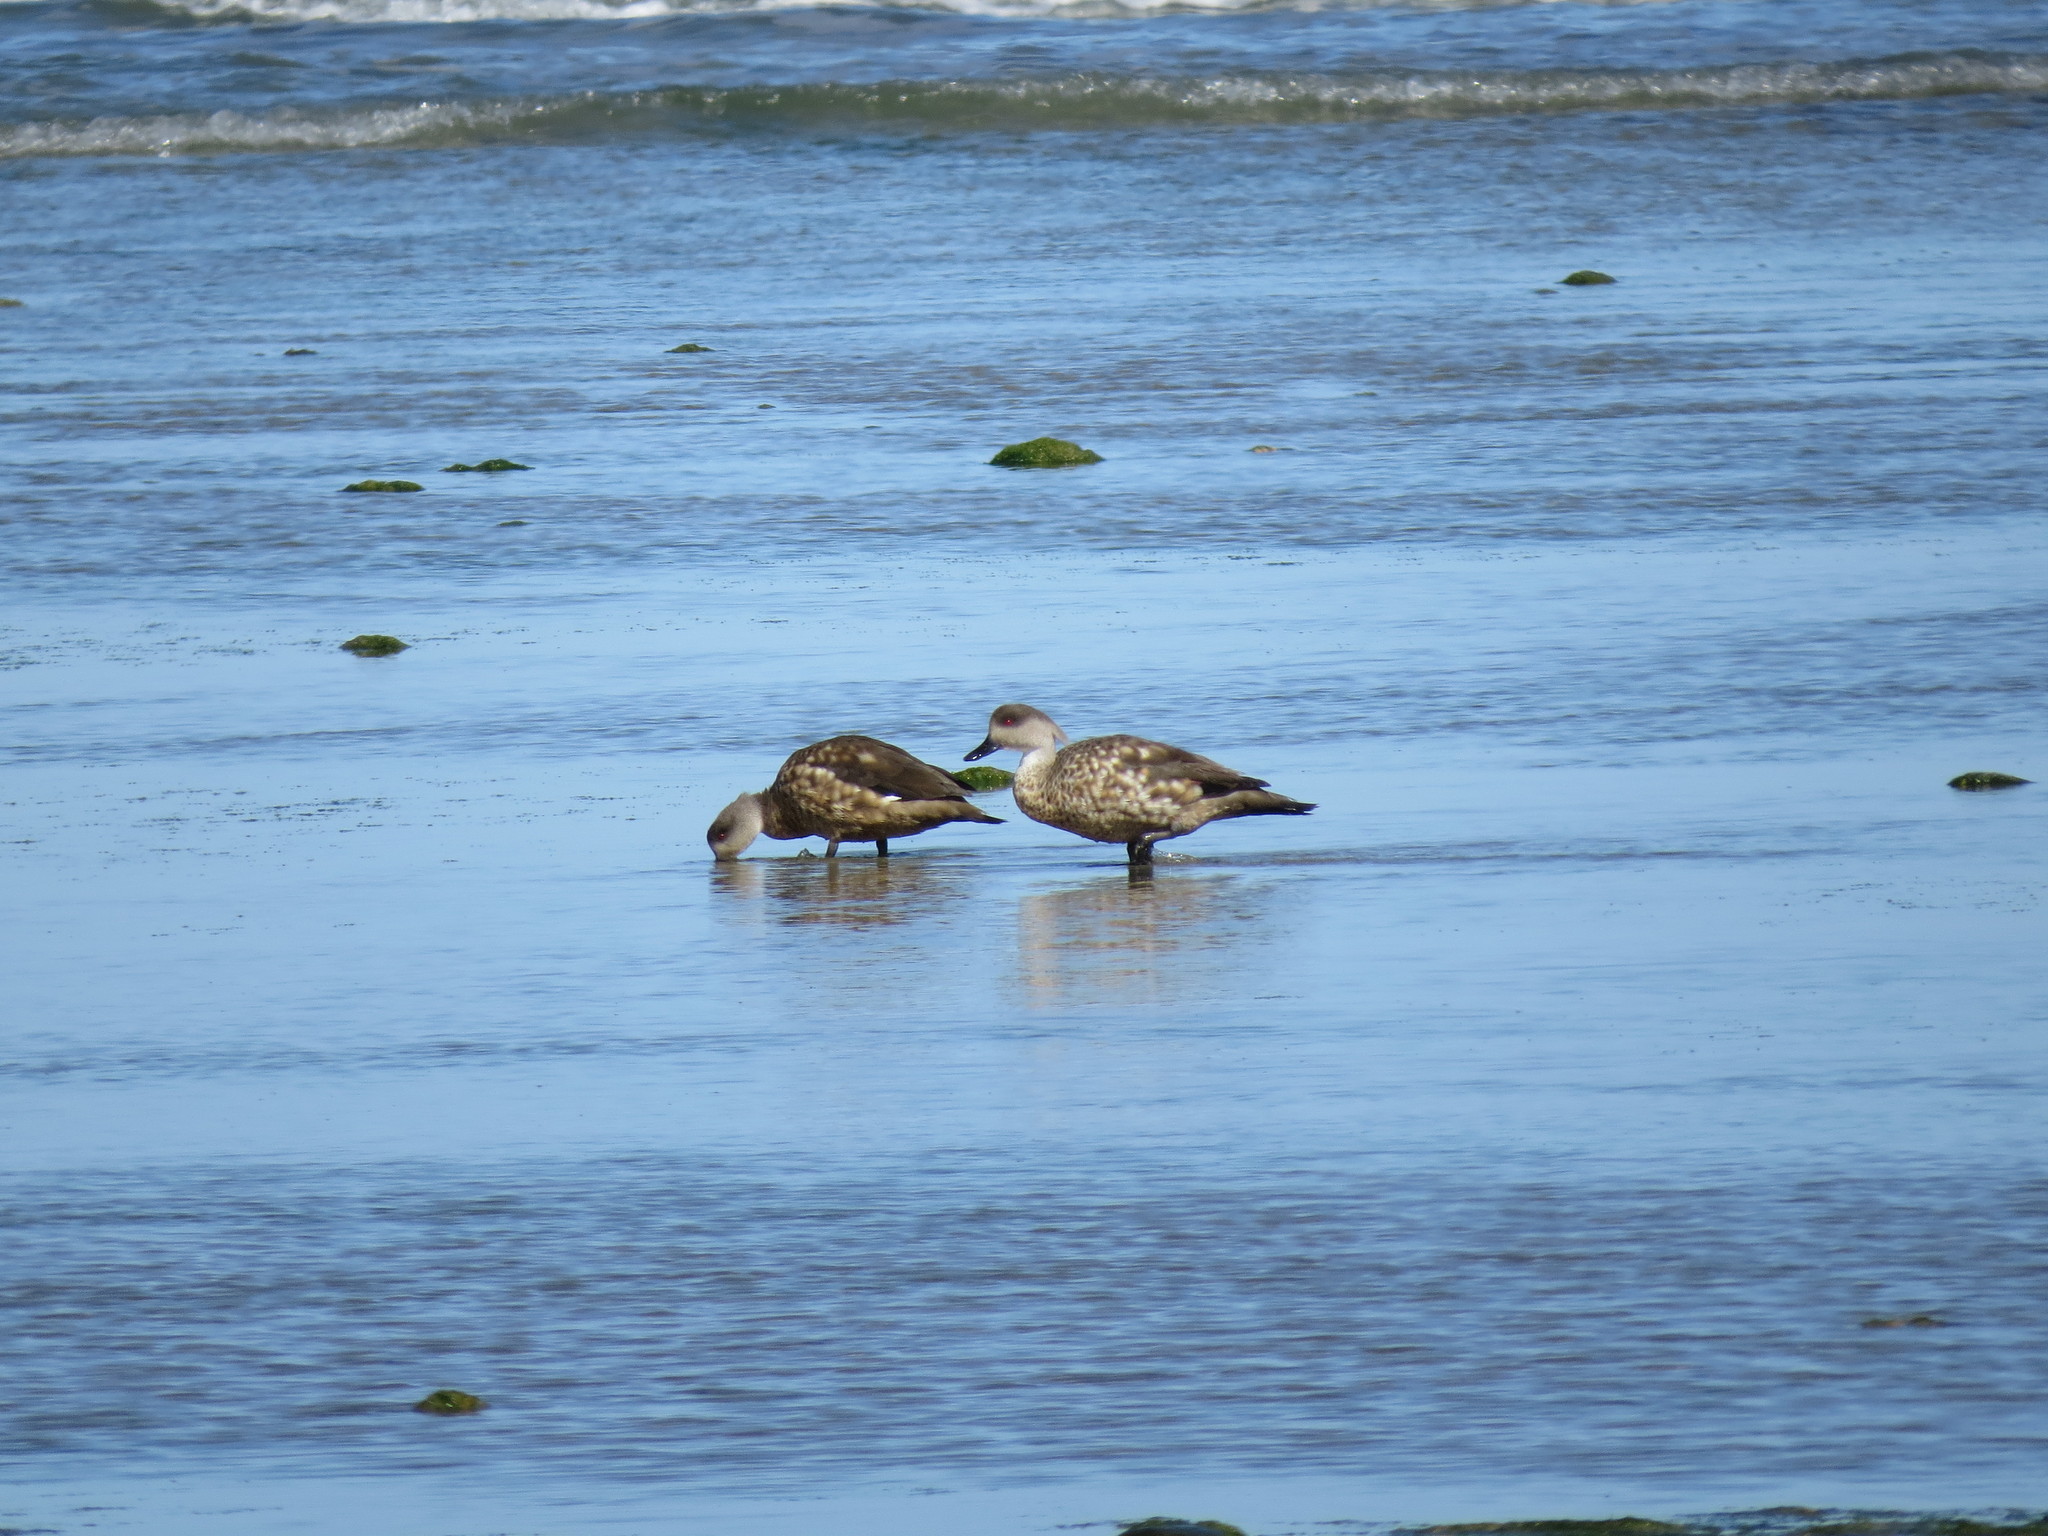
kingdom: Animalia
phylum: Chordata
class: Aves
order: Anseriformes
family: Anatidae
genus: Lophonetta
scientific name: Lophonetta specularioides
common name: Crested duck
